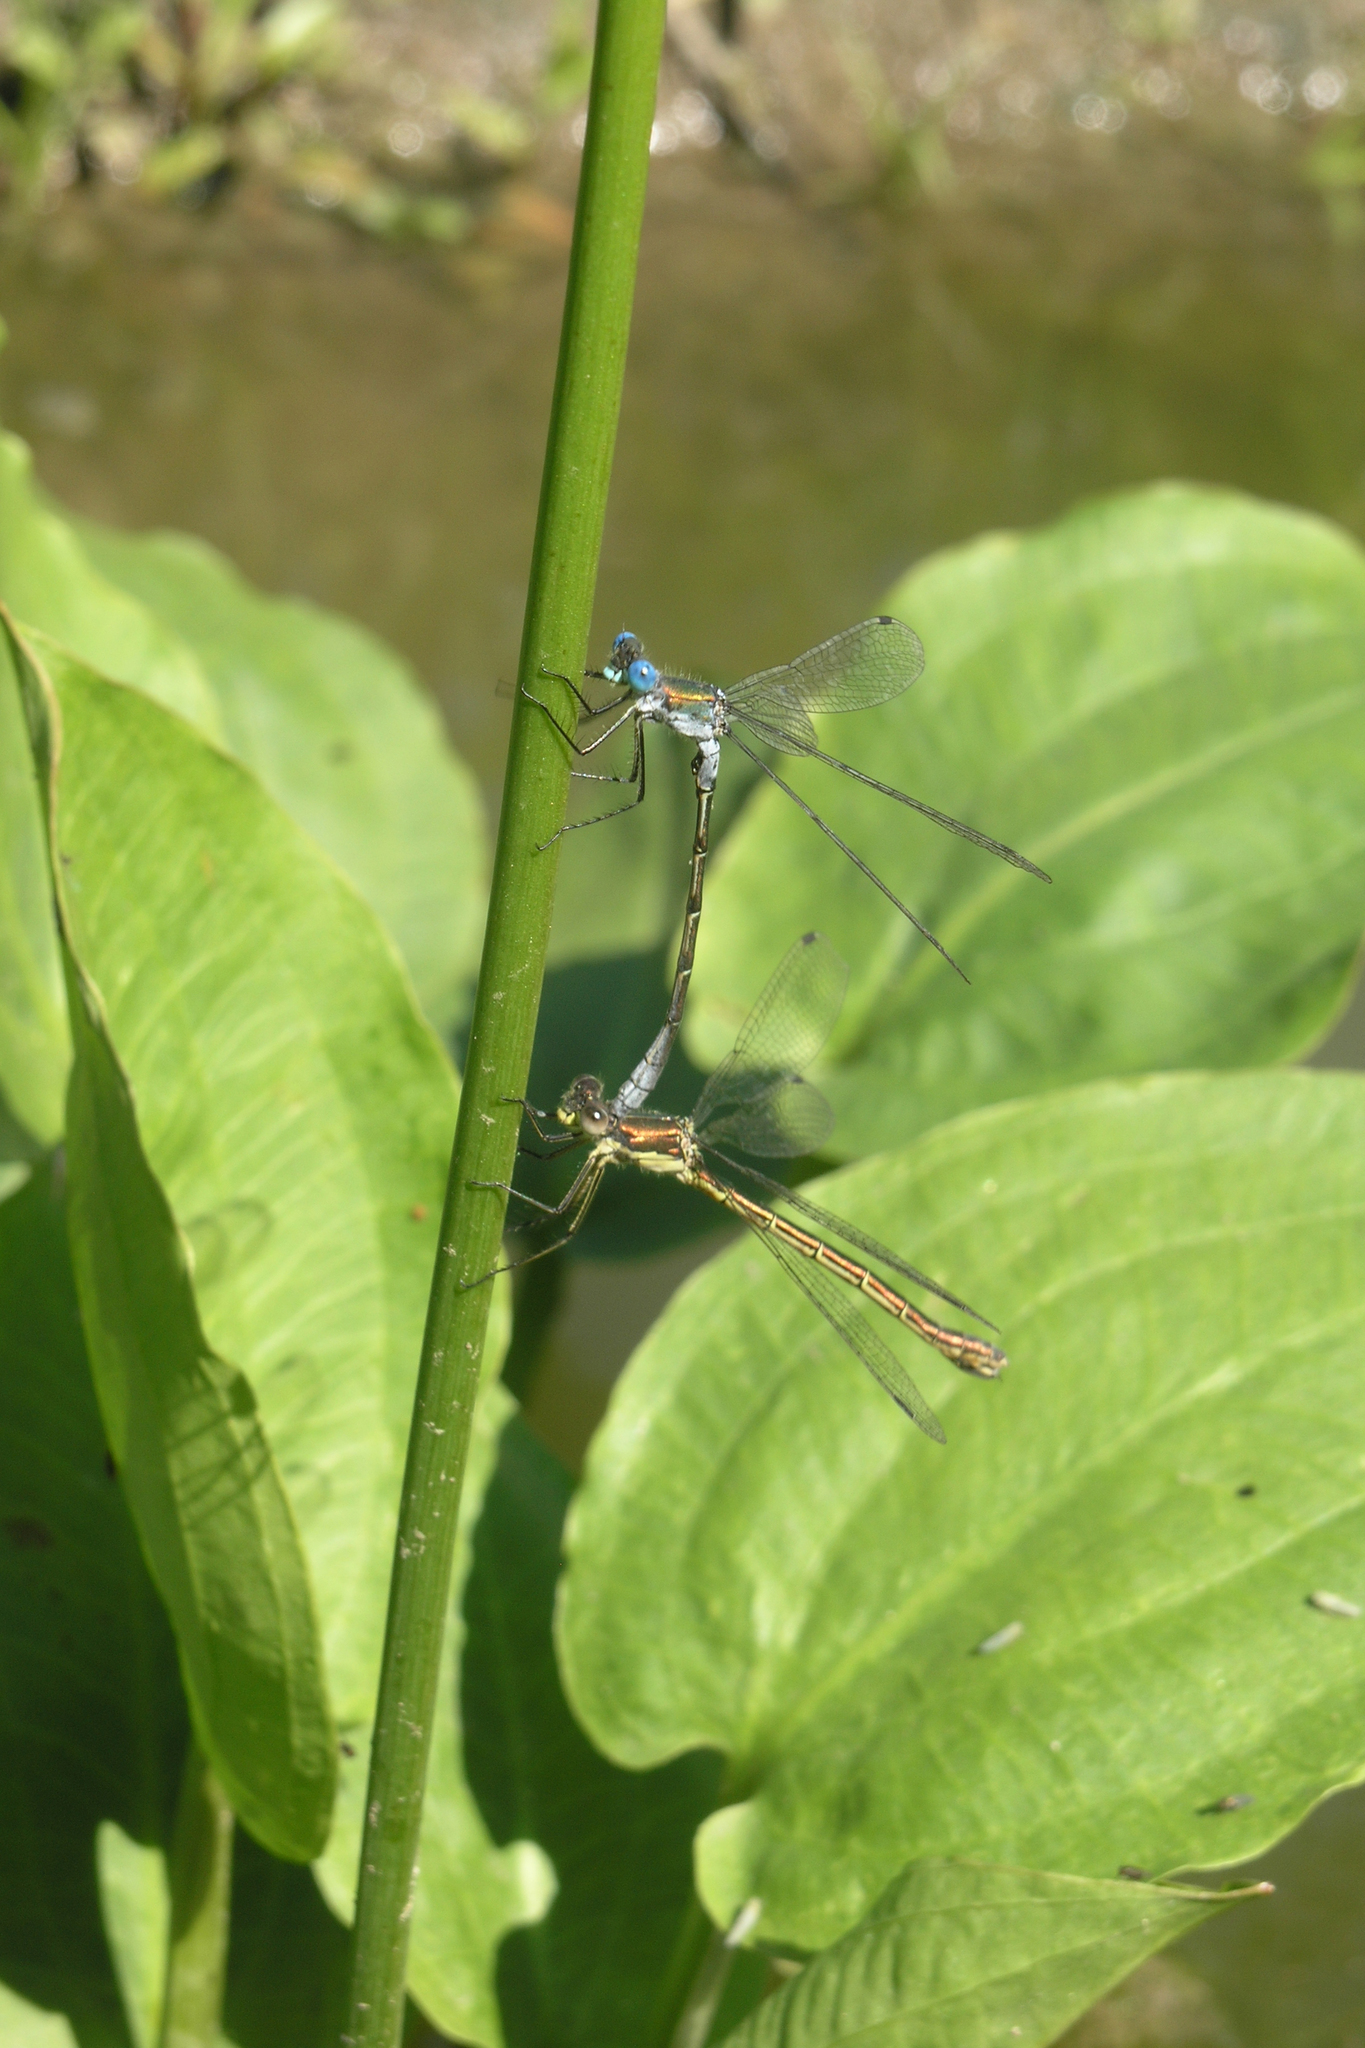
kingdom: Plantae
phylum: Tracheophyta
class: Liliopsida
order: Alismatales
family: Alismataceae
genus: Alisma
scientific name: Alisma plantago-aquatica
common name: Water-plantain
